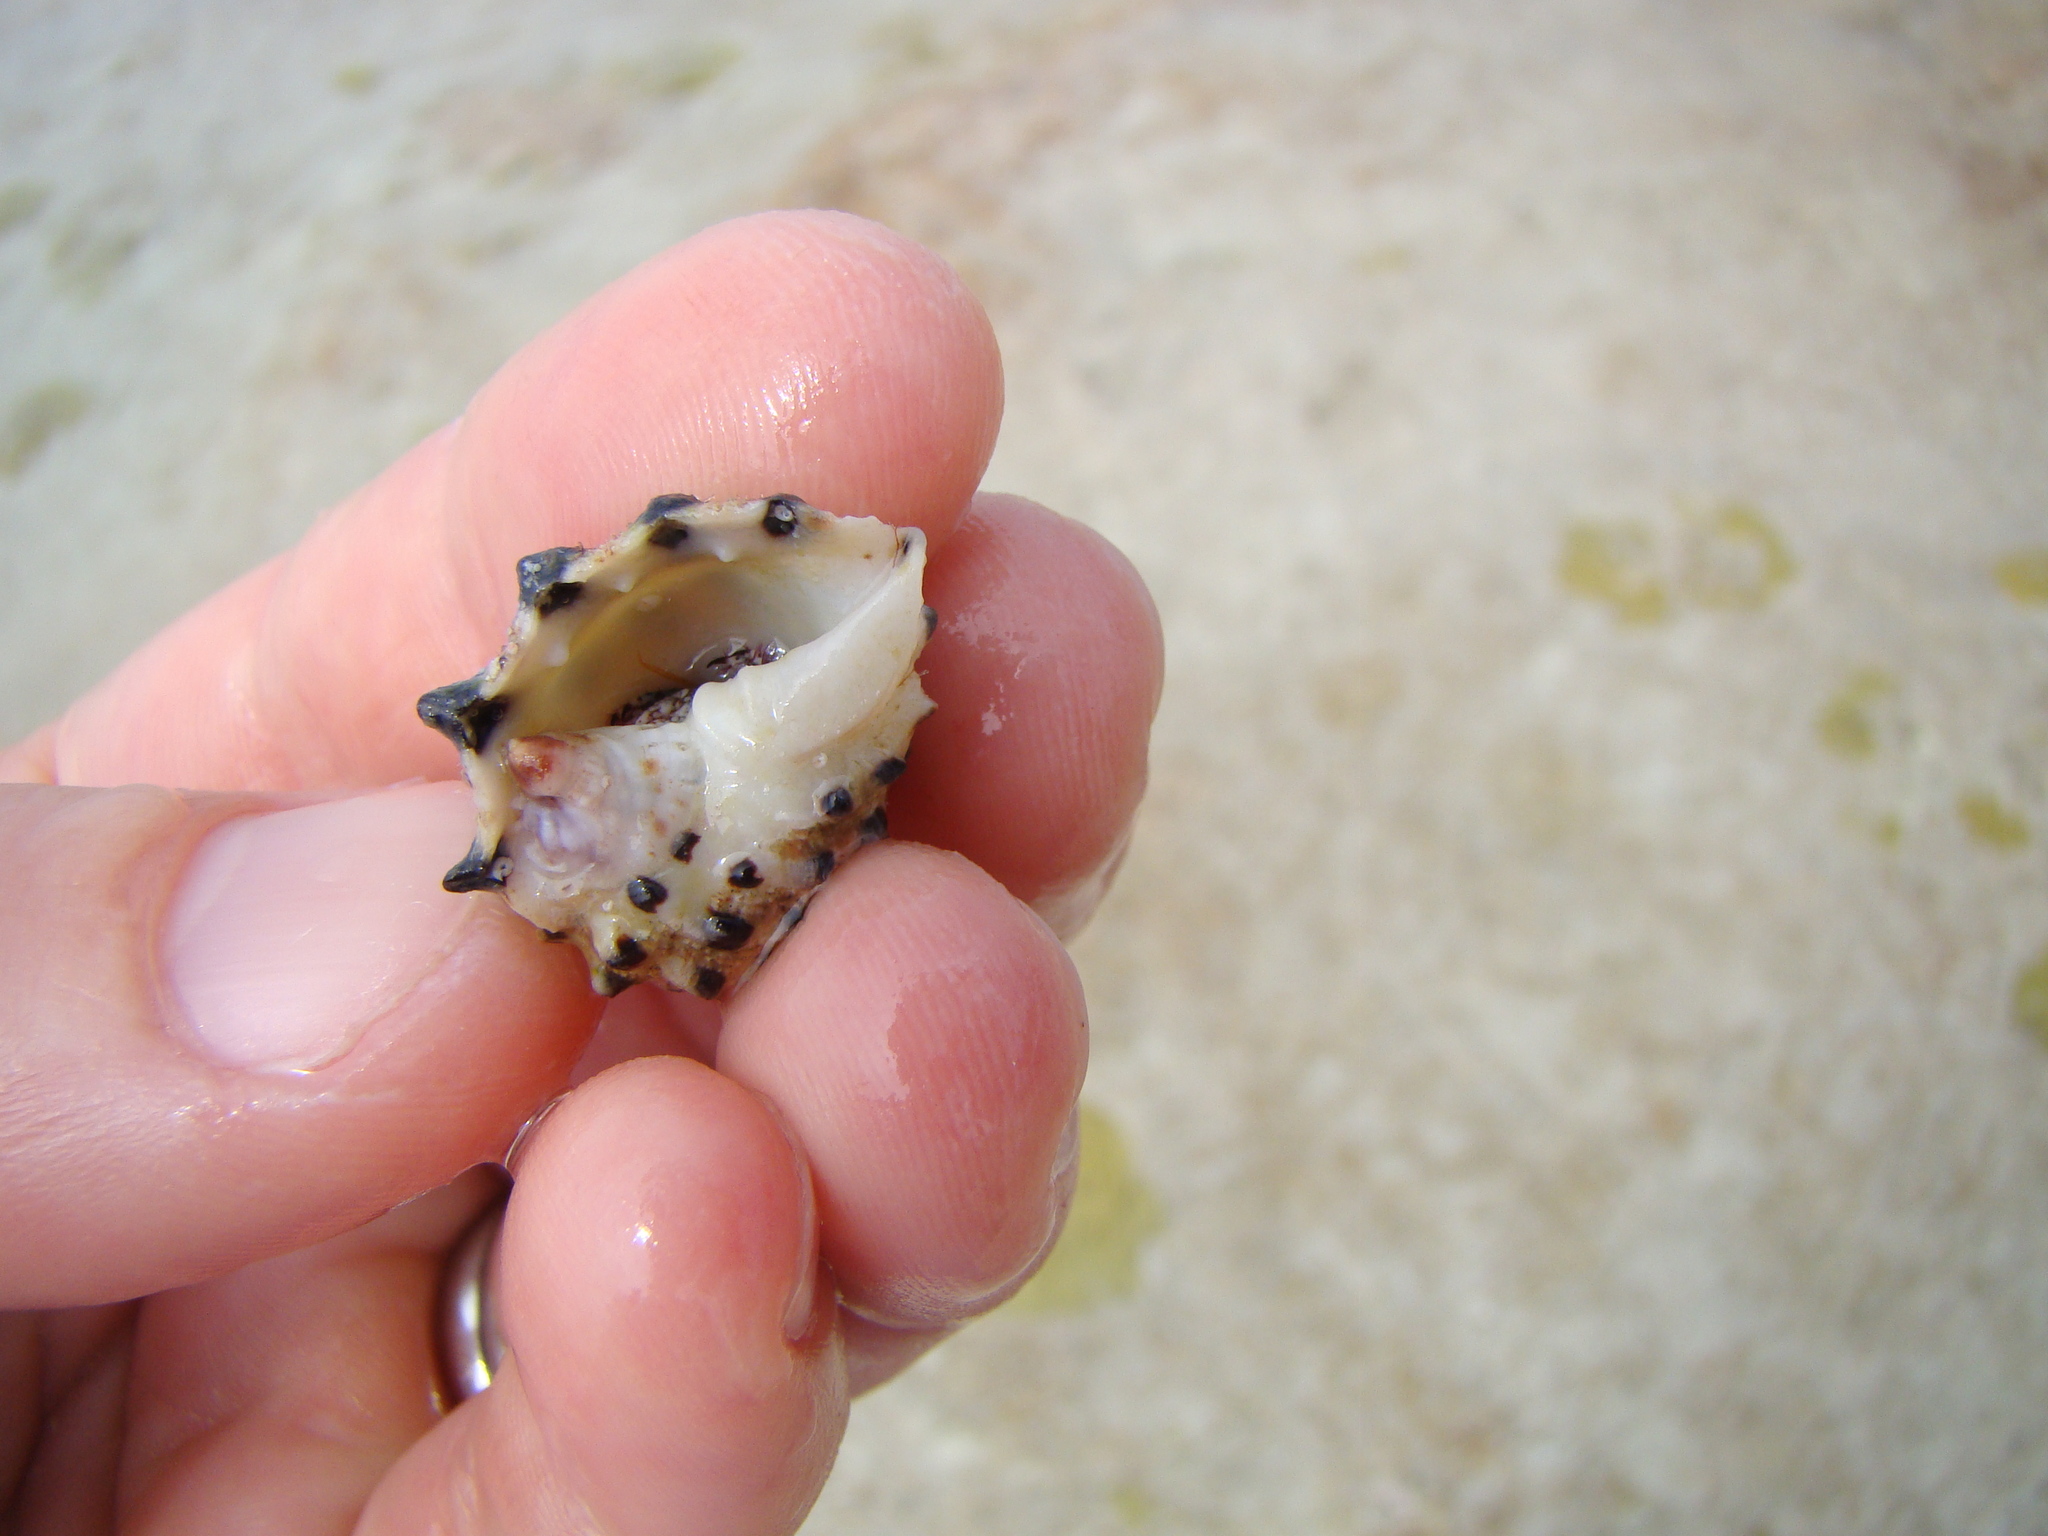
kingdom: Animalia
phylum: Mollusca
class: Gastropoda
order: Neogastropoda
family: Muricidae
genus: Drupa
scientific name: Drupa ricinus
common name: White-lipped castor bean
